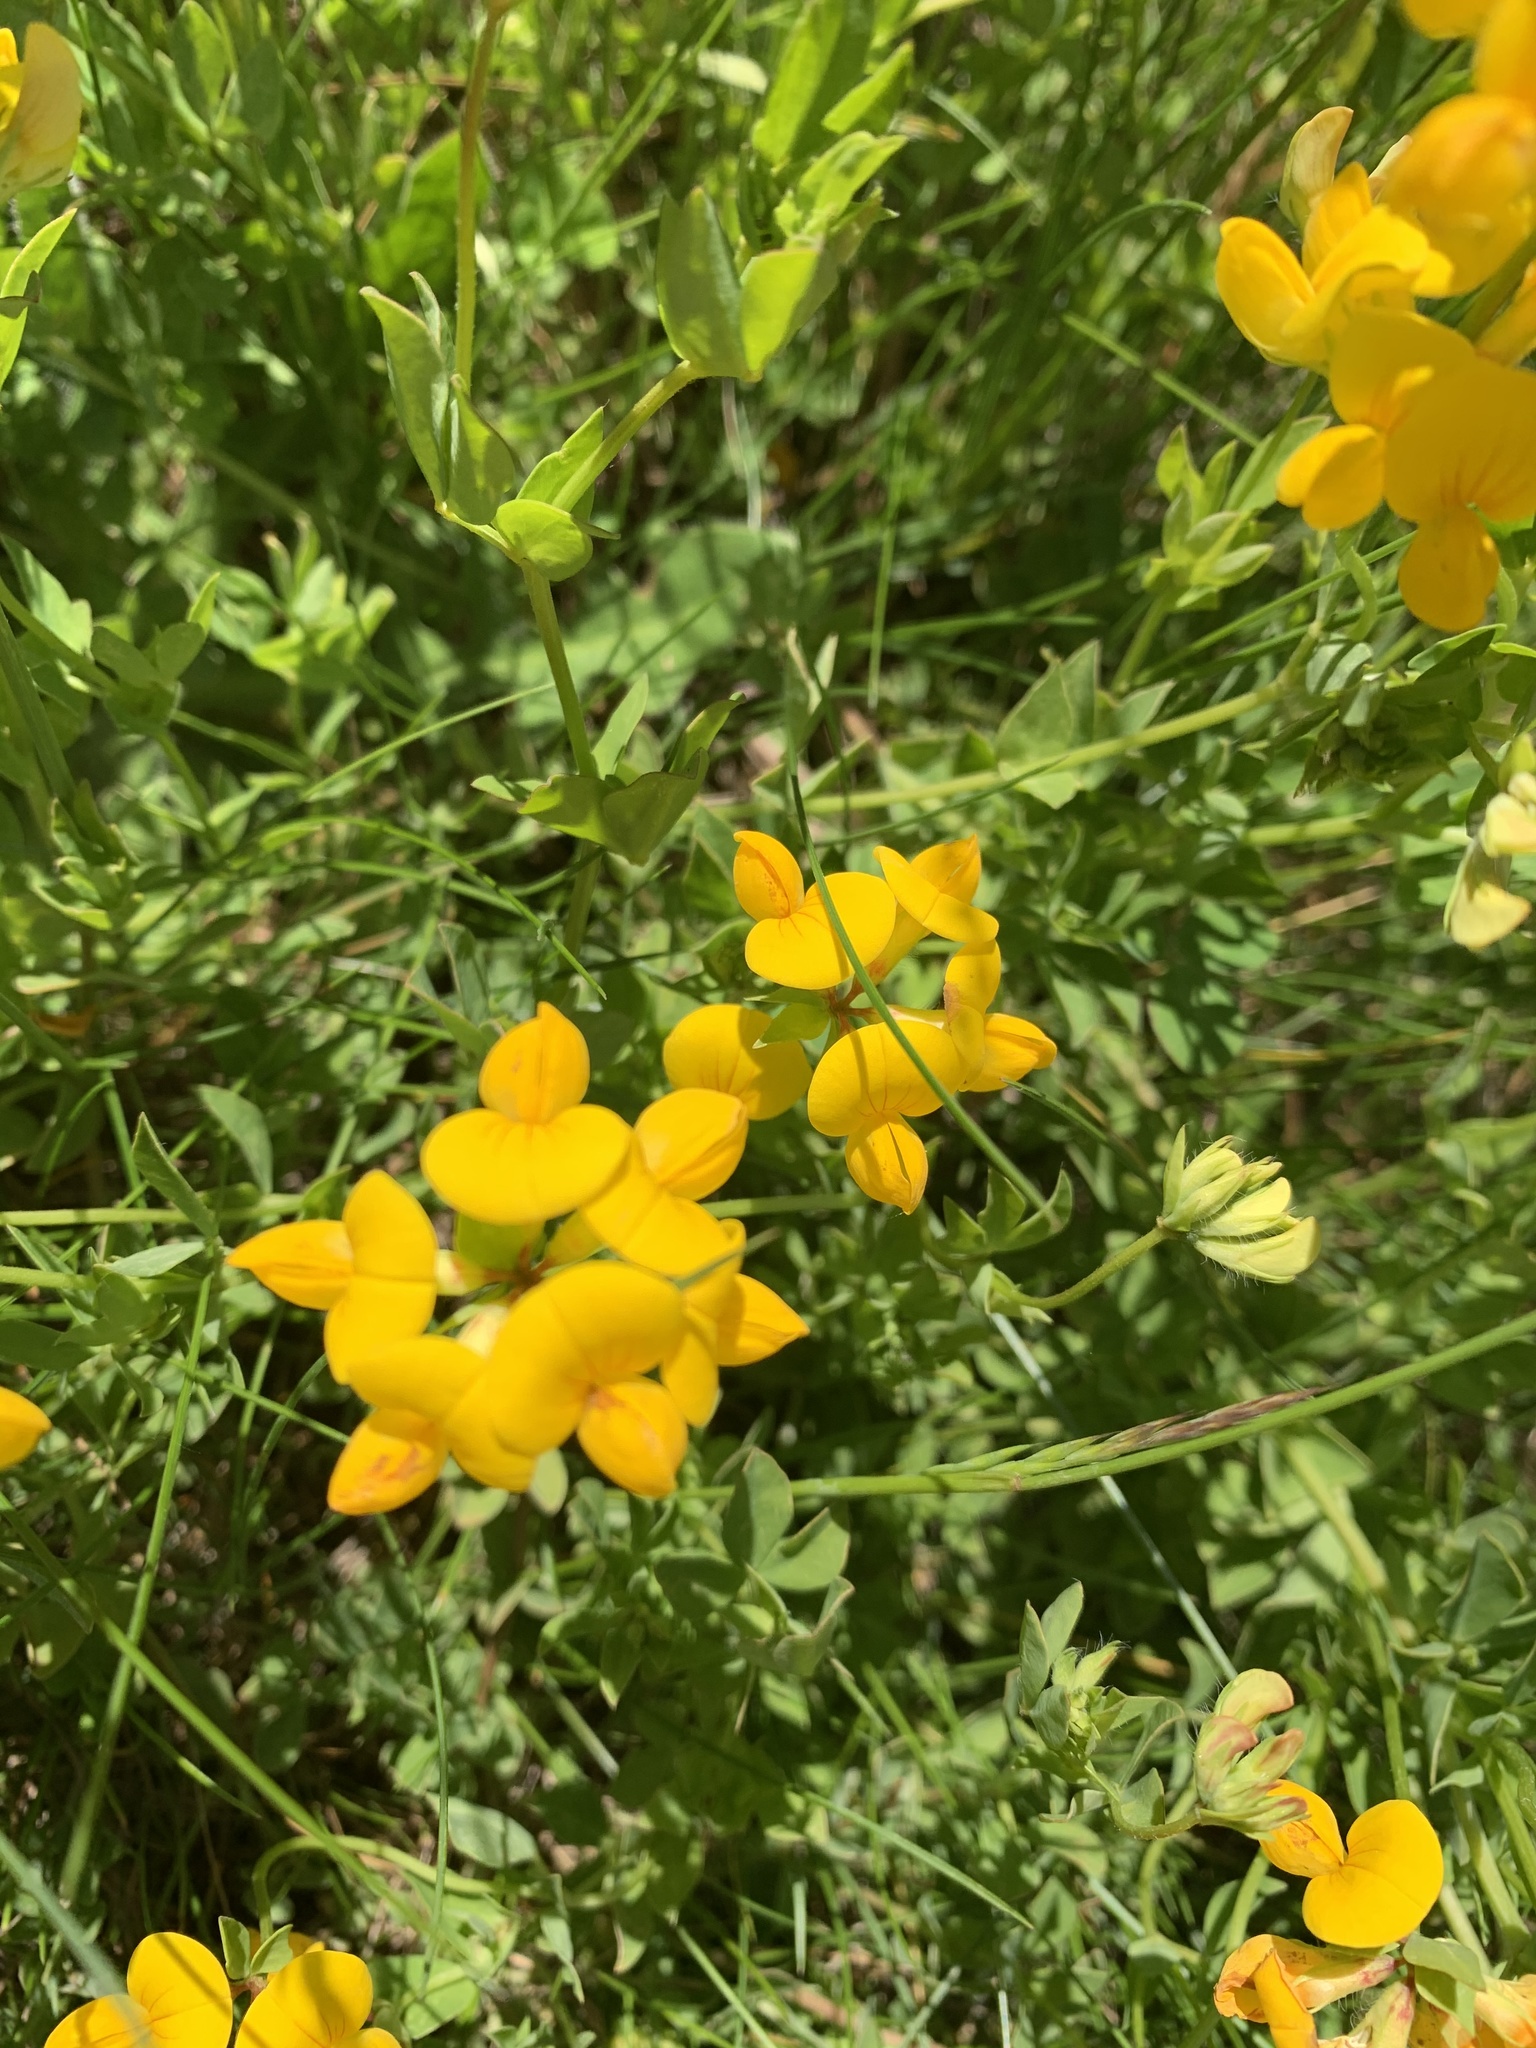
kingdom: Plantae
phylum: Tracheophyta
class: Magnoliopsida
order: Fabales
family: Fabaceae
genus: Lotus
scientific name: Lotus corniculatus
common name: Common bird's-foot-trefoil
